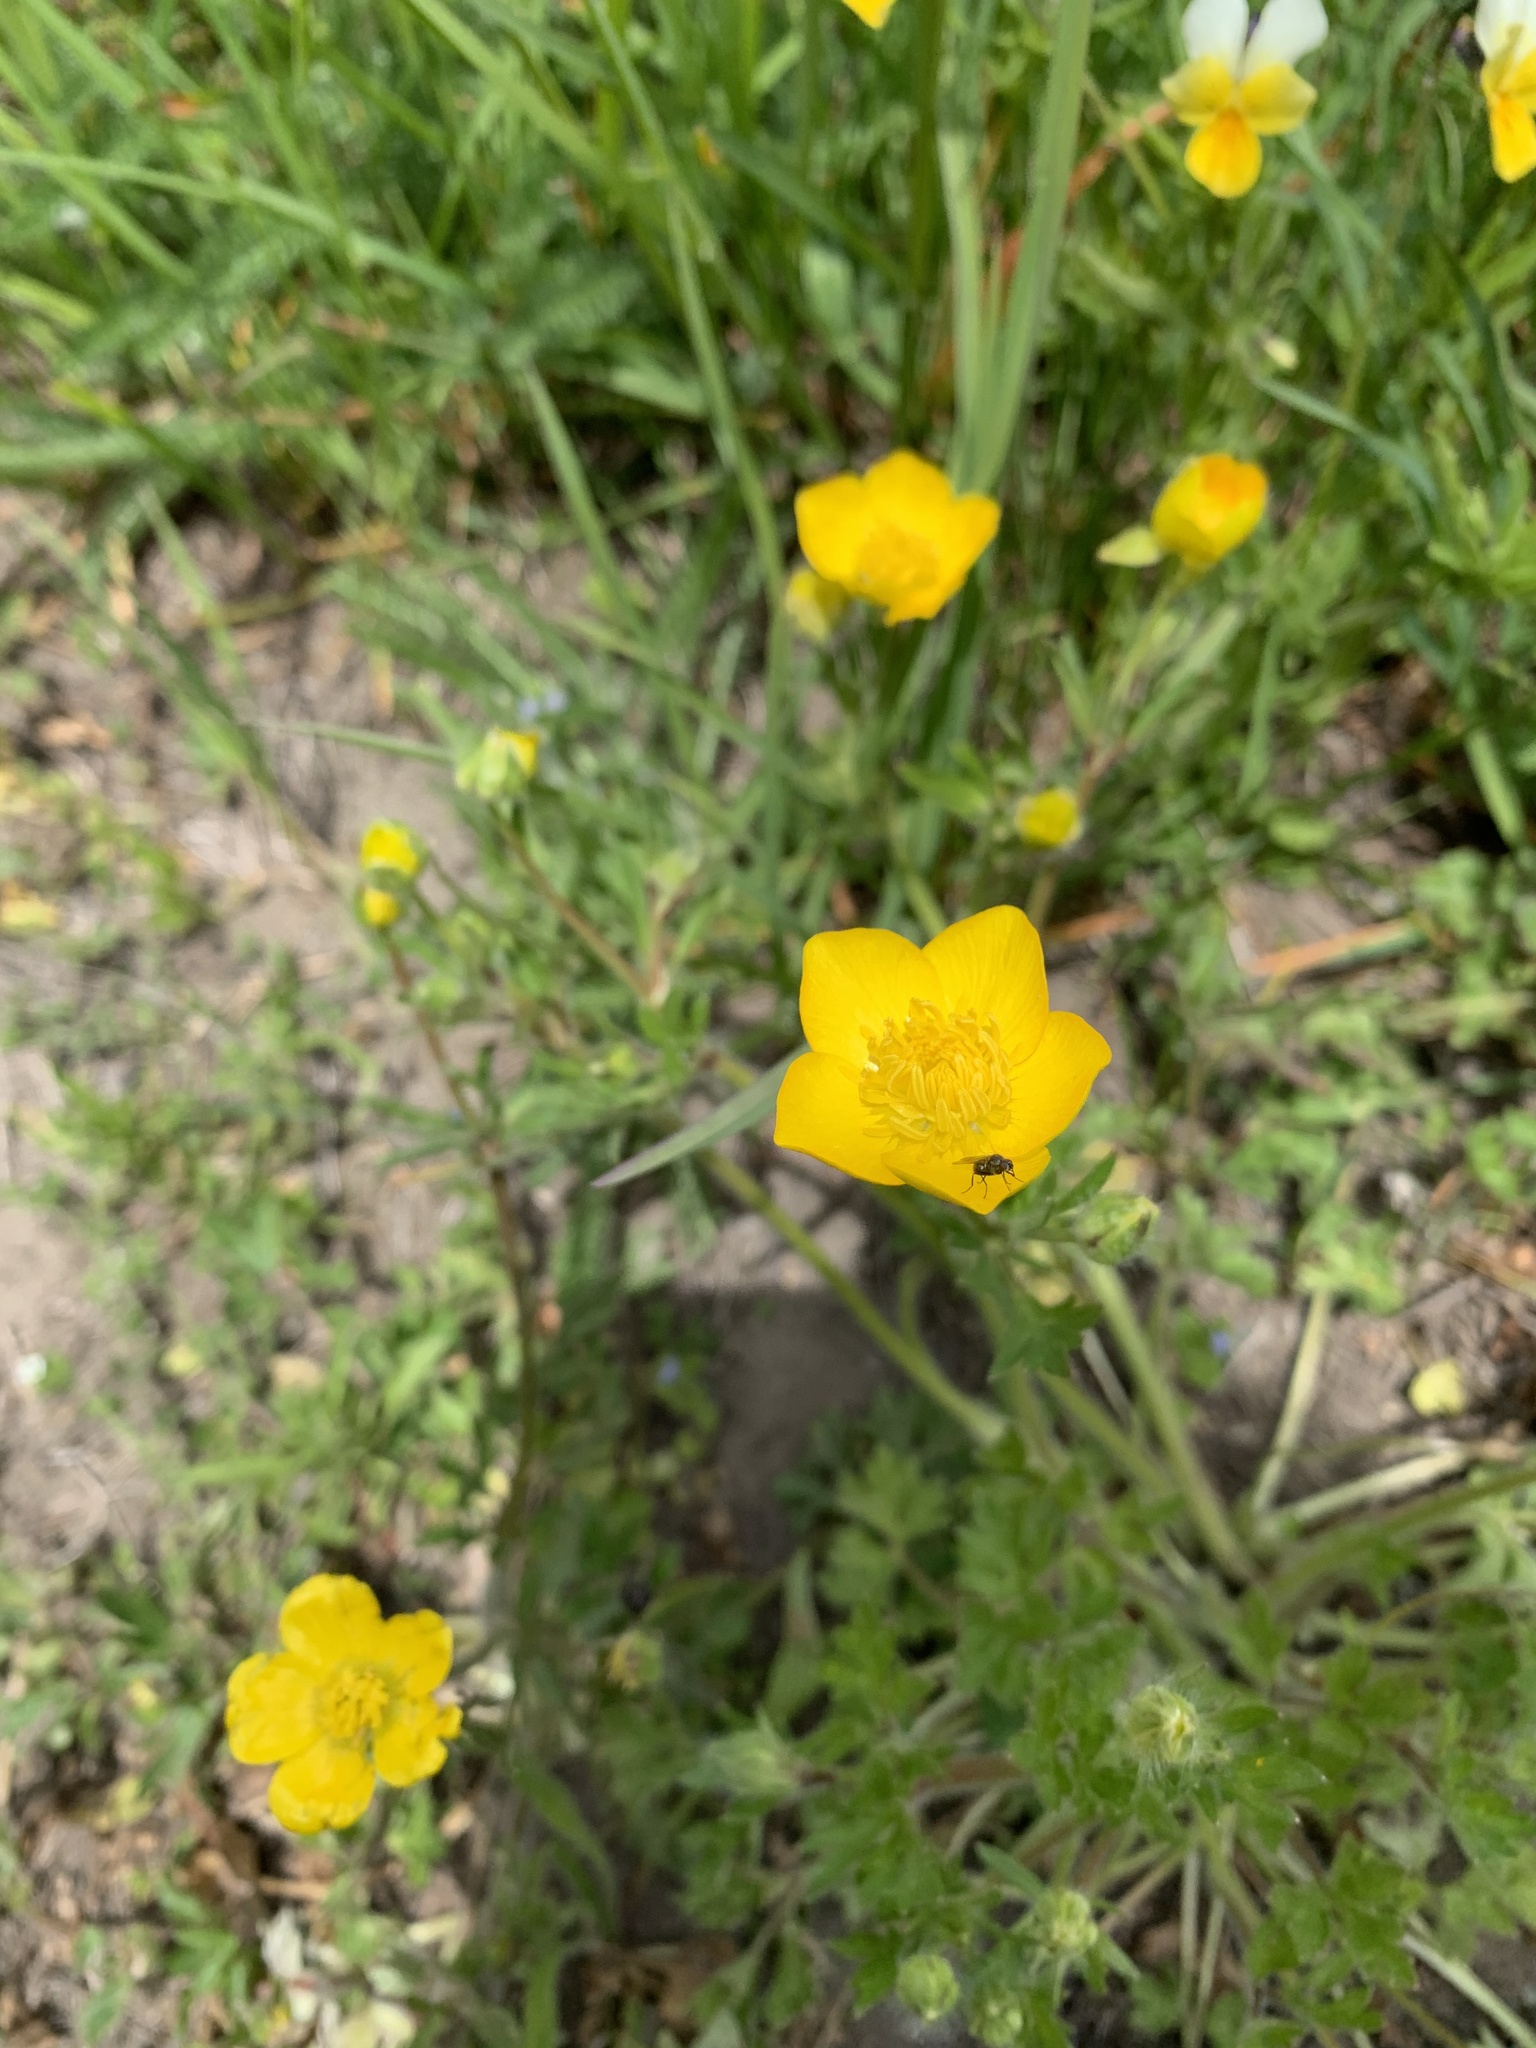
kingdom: Plantae
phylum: Tracheophyta
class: Magnoliopsida
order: Ranunculales
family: Ranunculaceae
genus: Ranunculus
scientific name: Ranunculus bulbosus
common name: Bulbous buttercup
